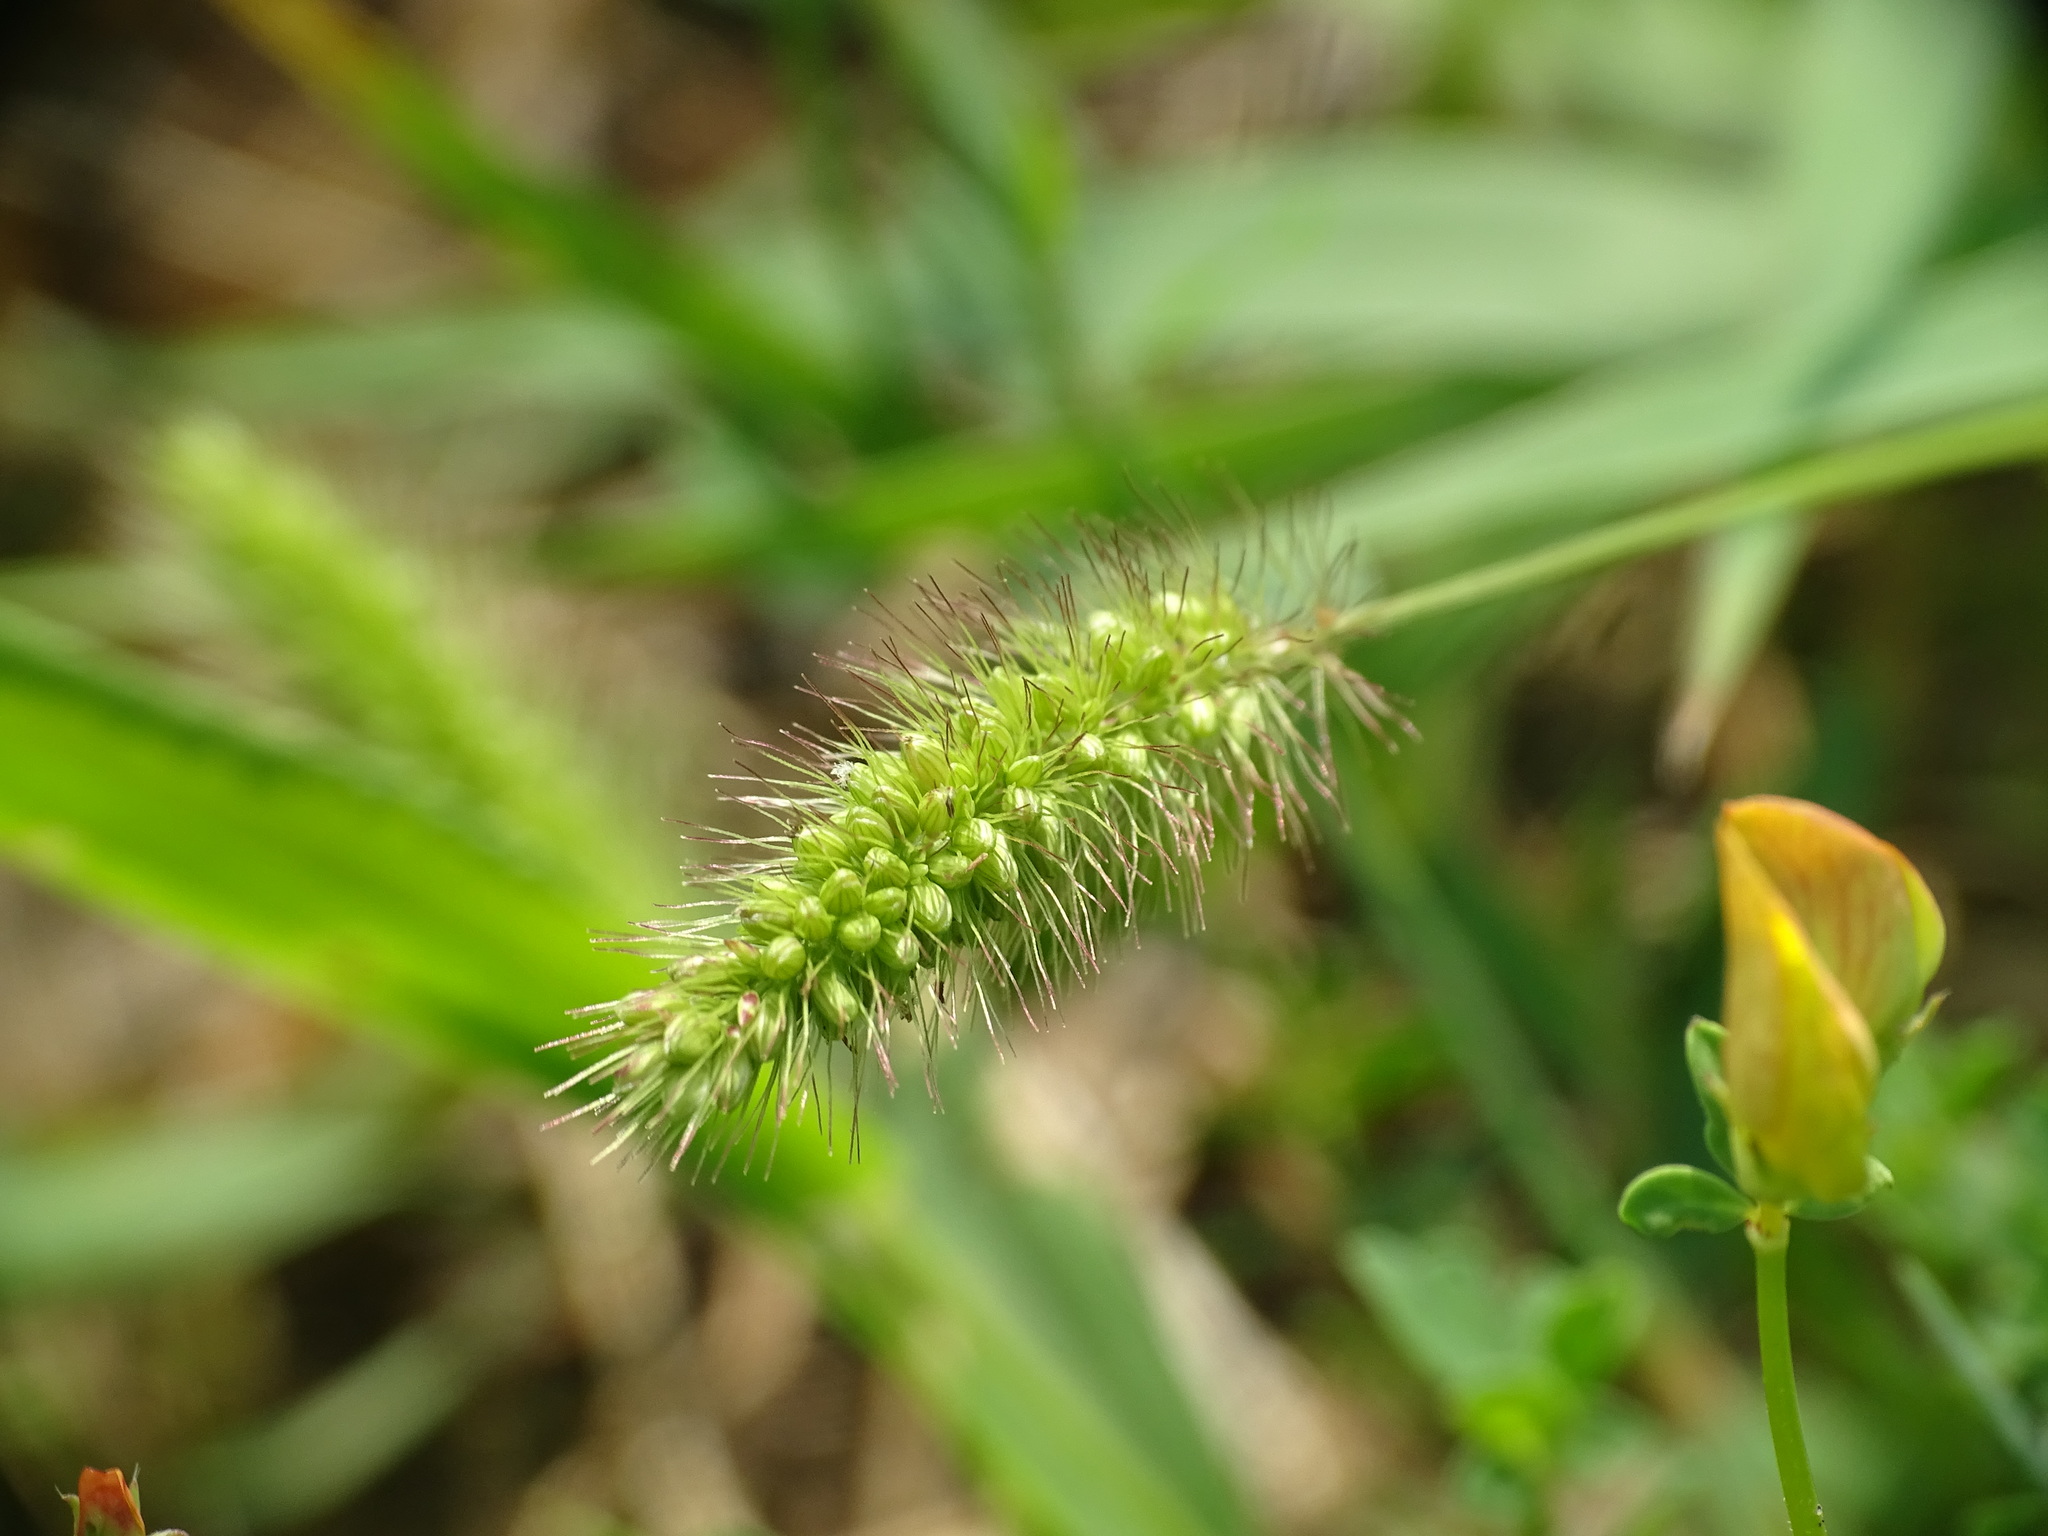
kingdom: Plantae
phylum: Tracheophyta
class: Liliopsida
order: Poales
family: Poaceae
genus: Setaria
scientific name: Setaria viridis
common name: Green bristlegrass
